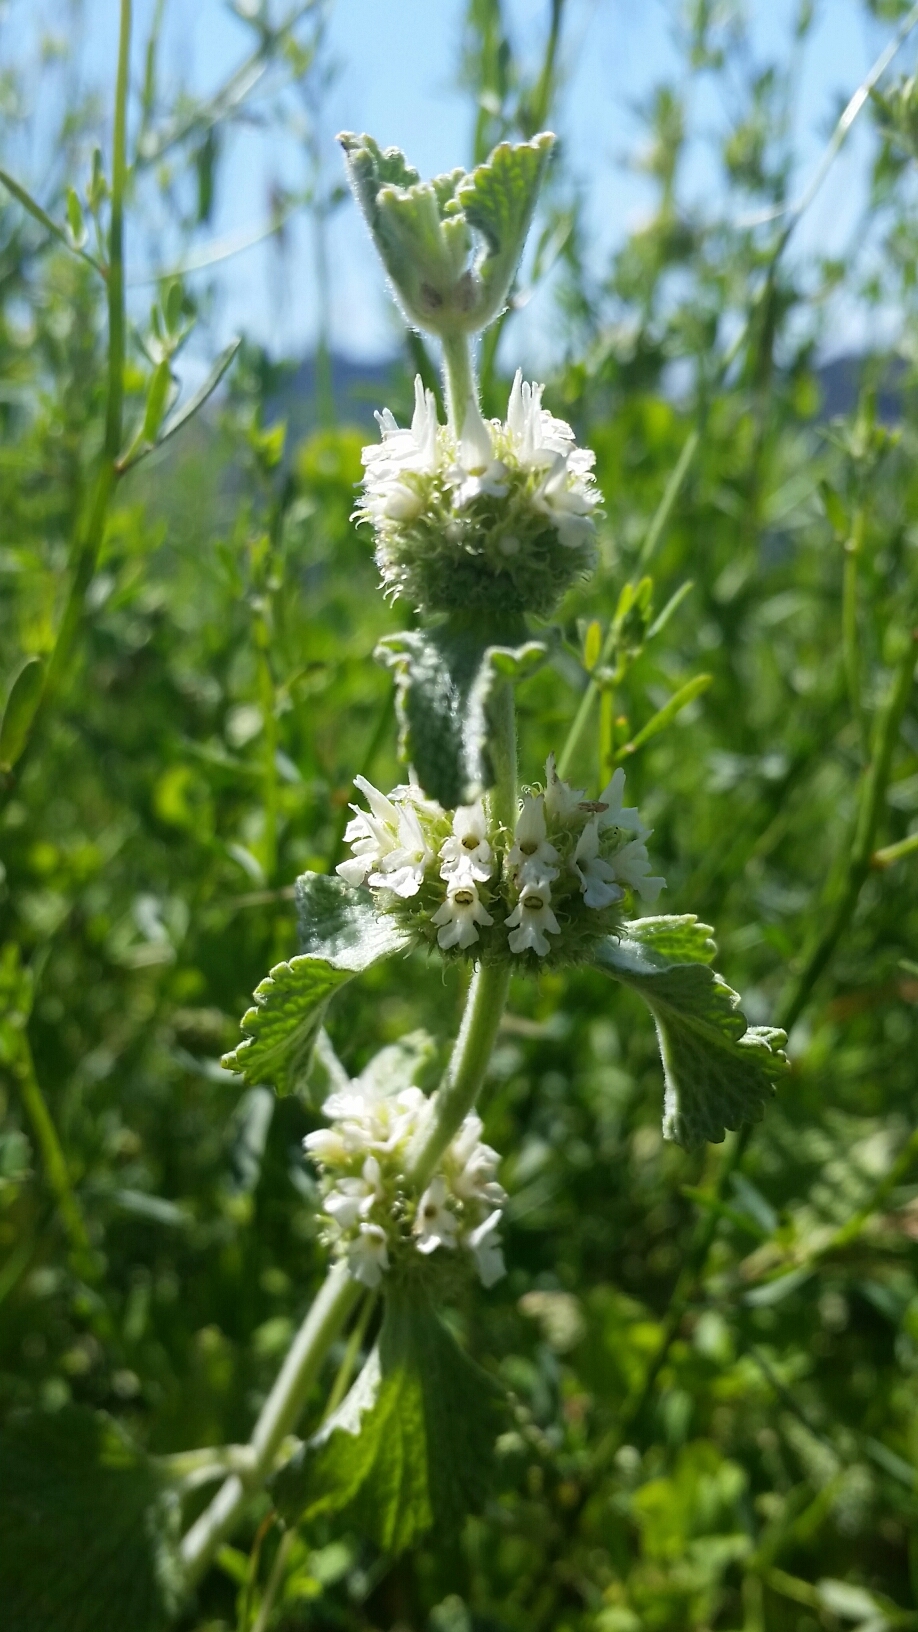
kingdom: Plantae
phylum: Tracheophyta
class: Magnoliopsida
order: Lamiales
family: Lamiaceae
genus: Marrubium
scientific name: Marrubium vulgare
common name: Horehound
